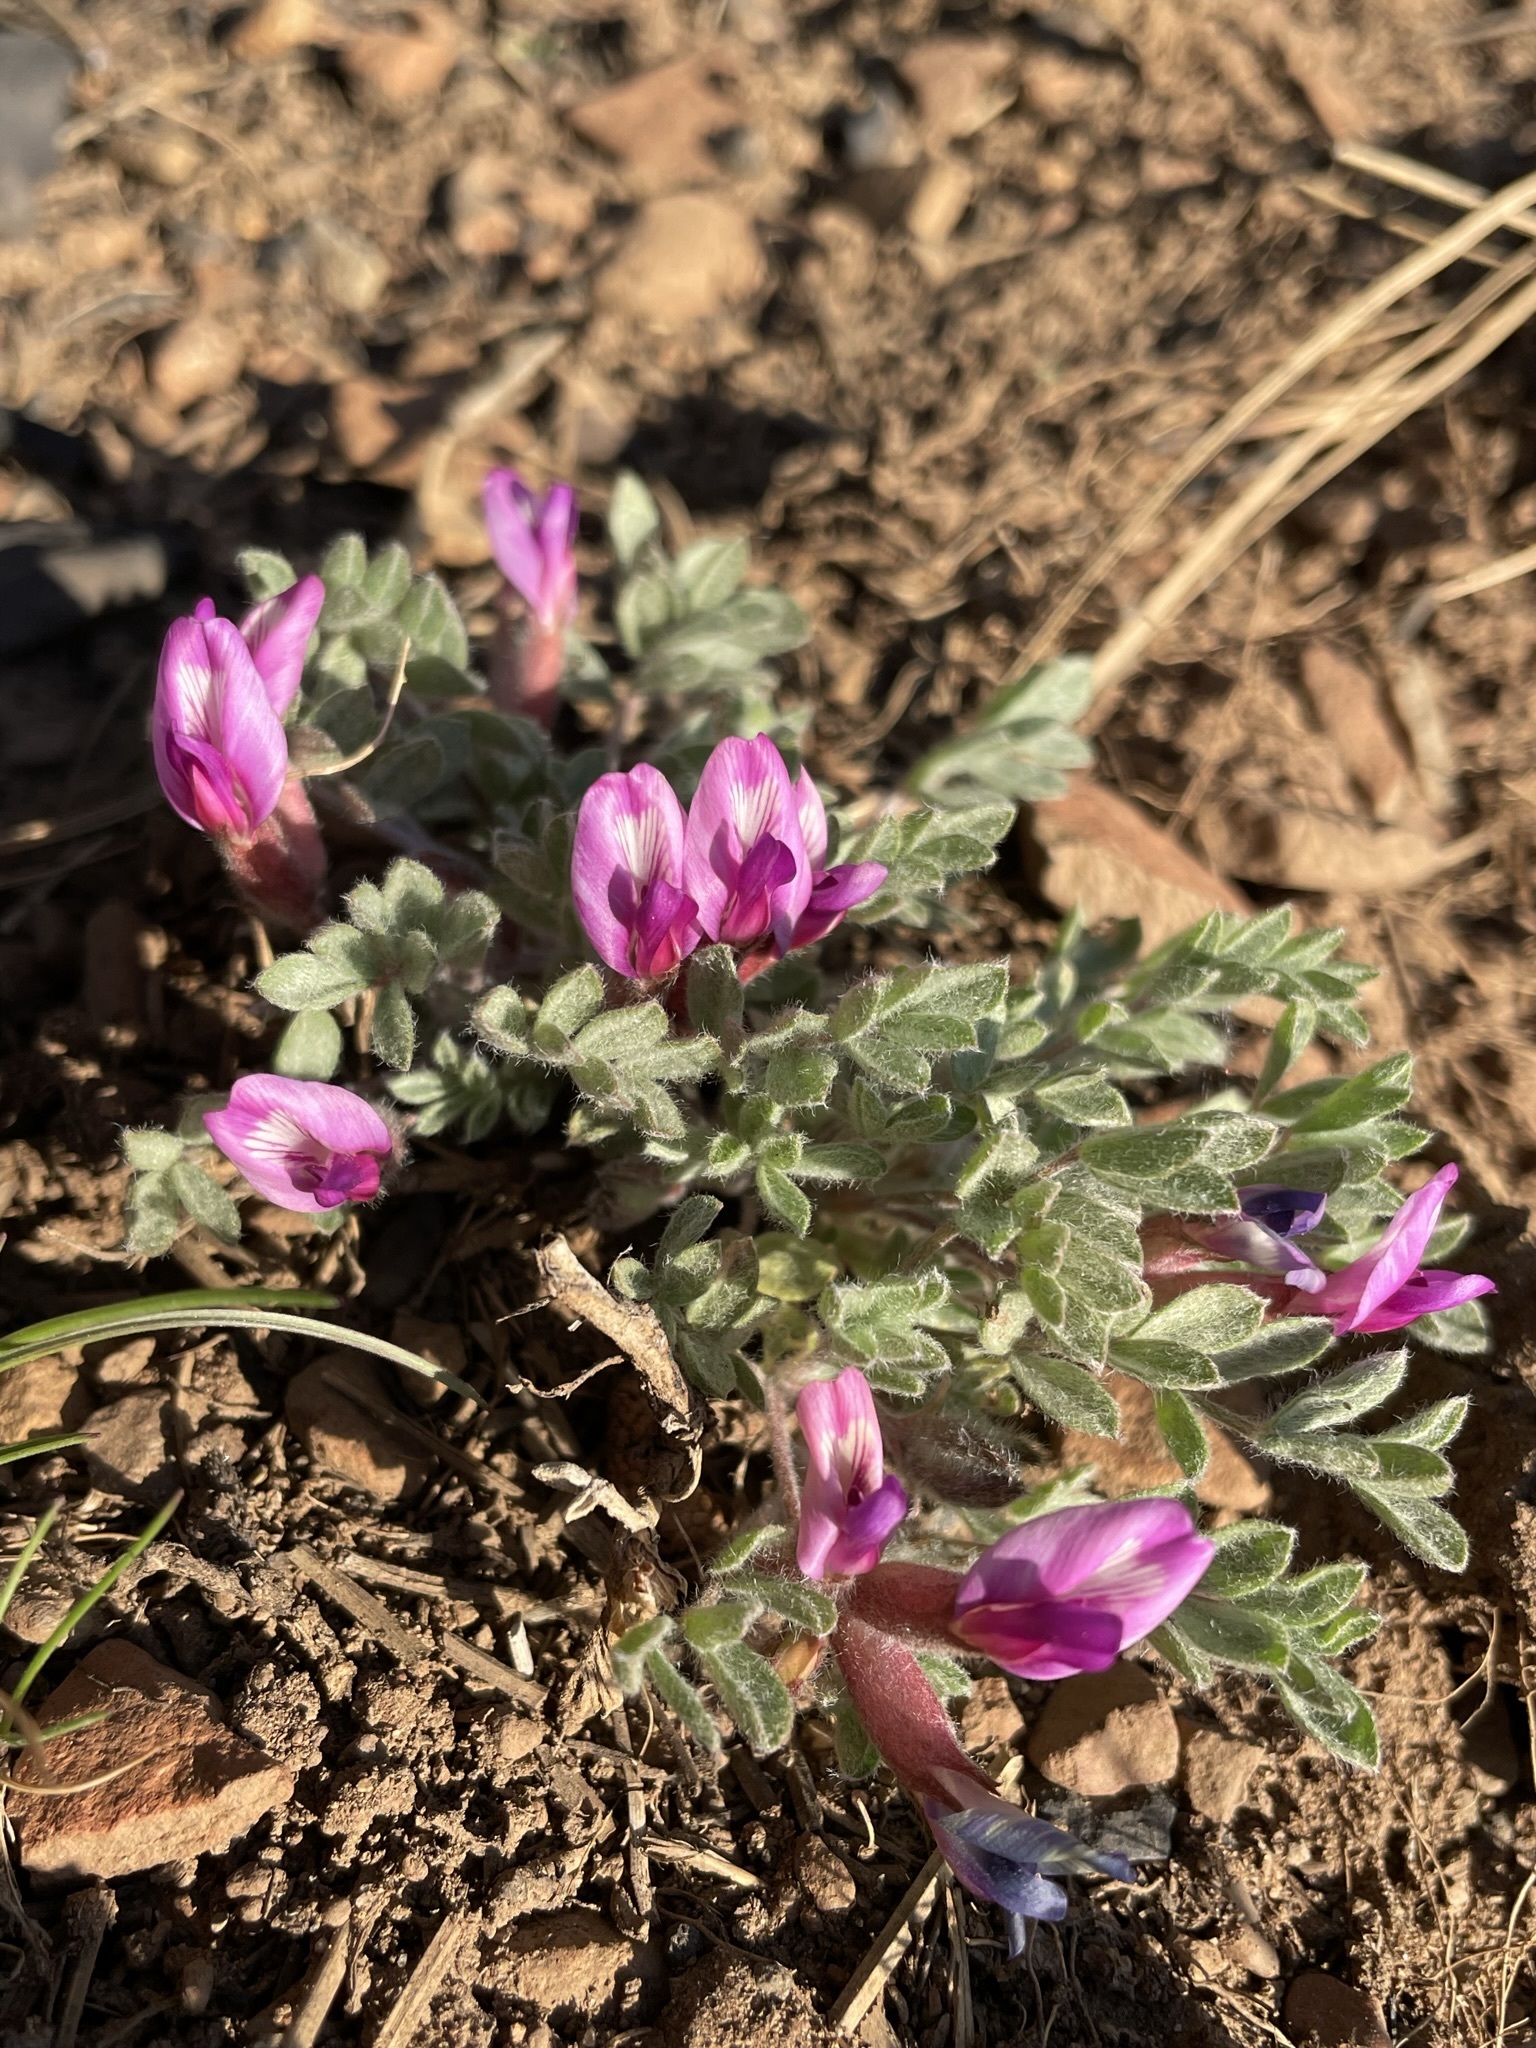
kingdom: Plantae
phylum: Tracheophyta
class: Magnoliopsida
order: Fabales
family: Fabaceae
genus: Astragalus
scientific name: Astragalus purshii
